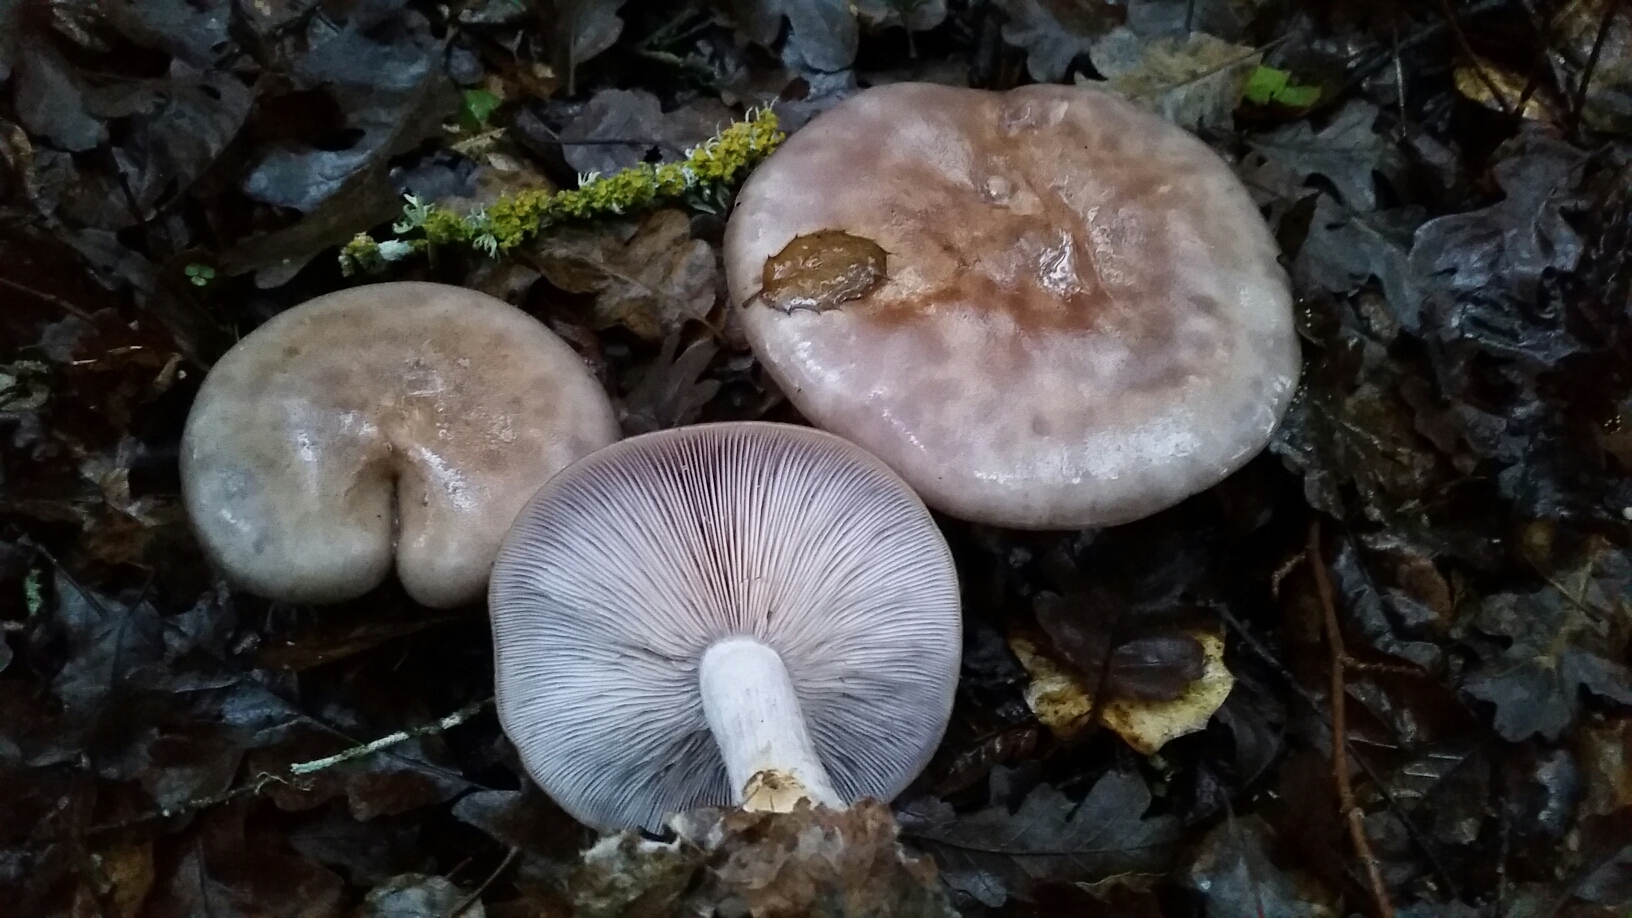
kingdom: Fungi
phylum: Basidiomycota
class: Agaricomycetes
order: Agaricales
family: Tricholomataceae
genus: Collybia
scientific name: Collybia
